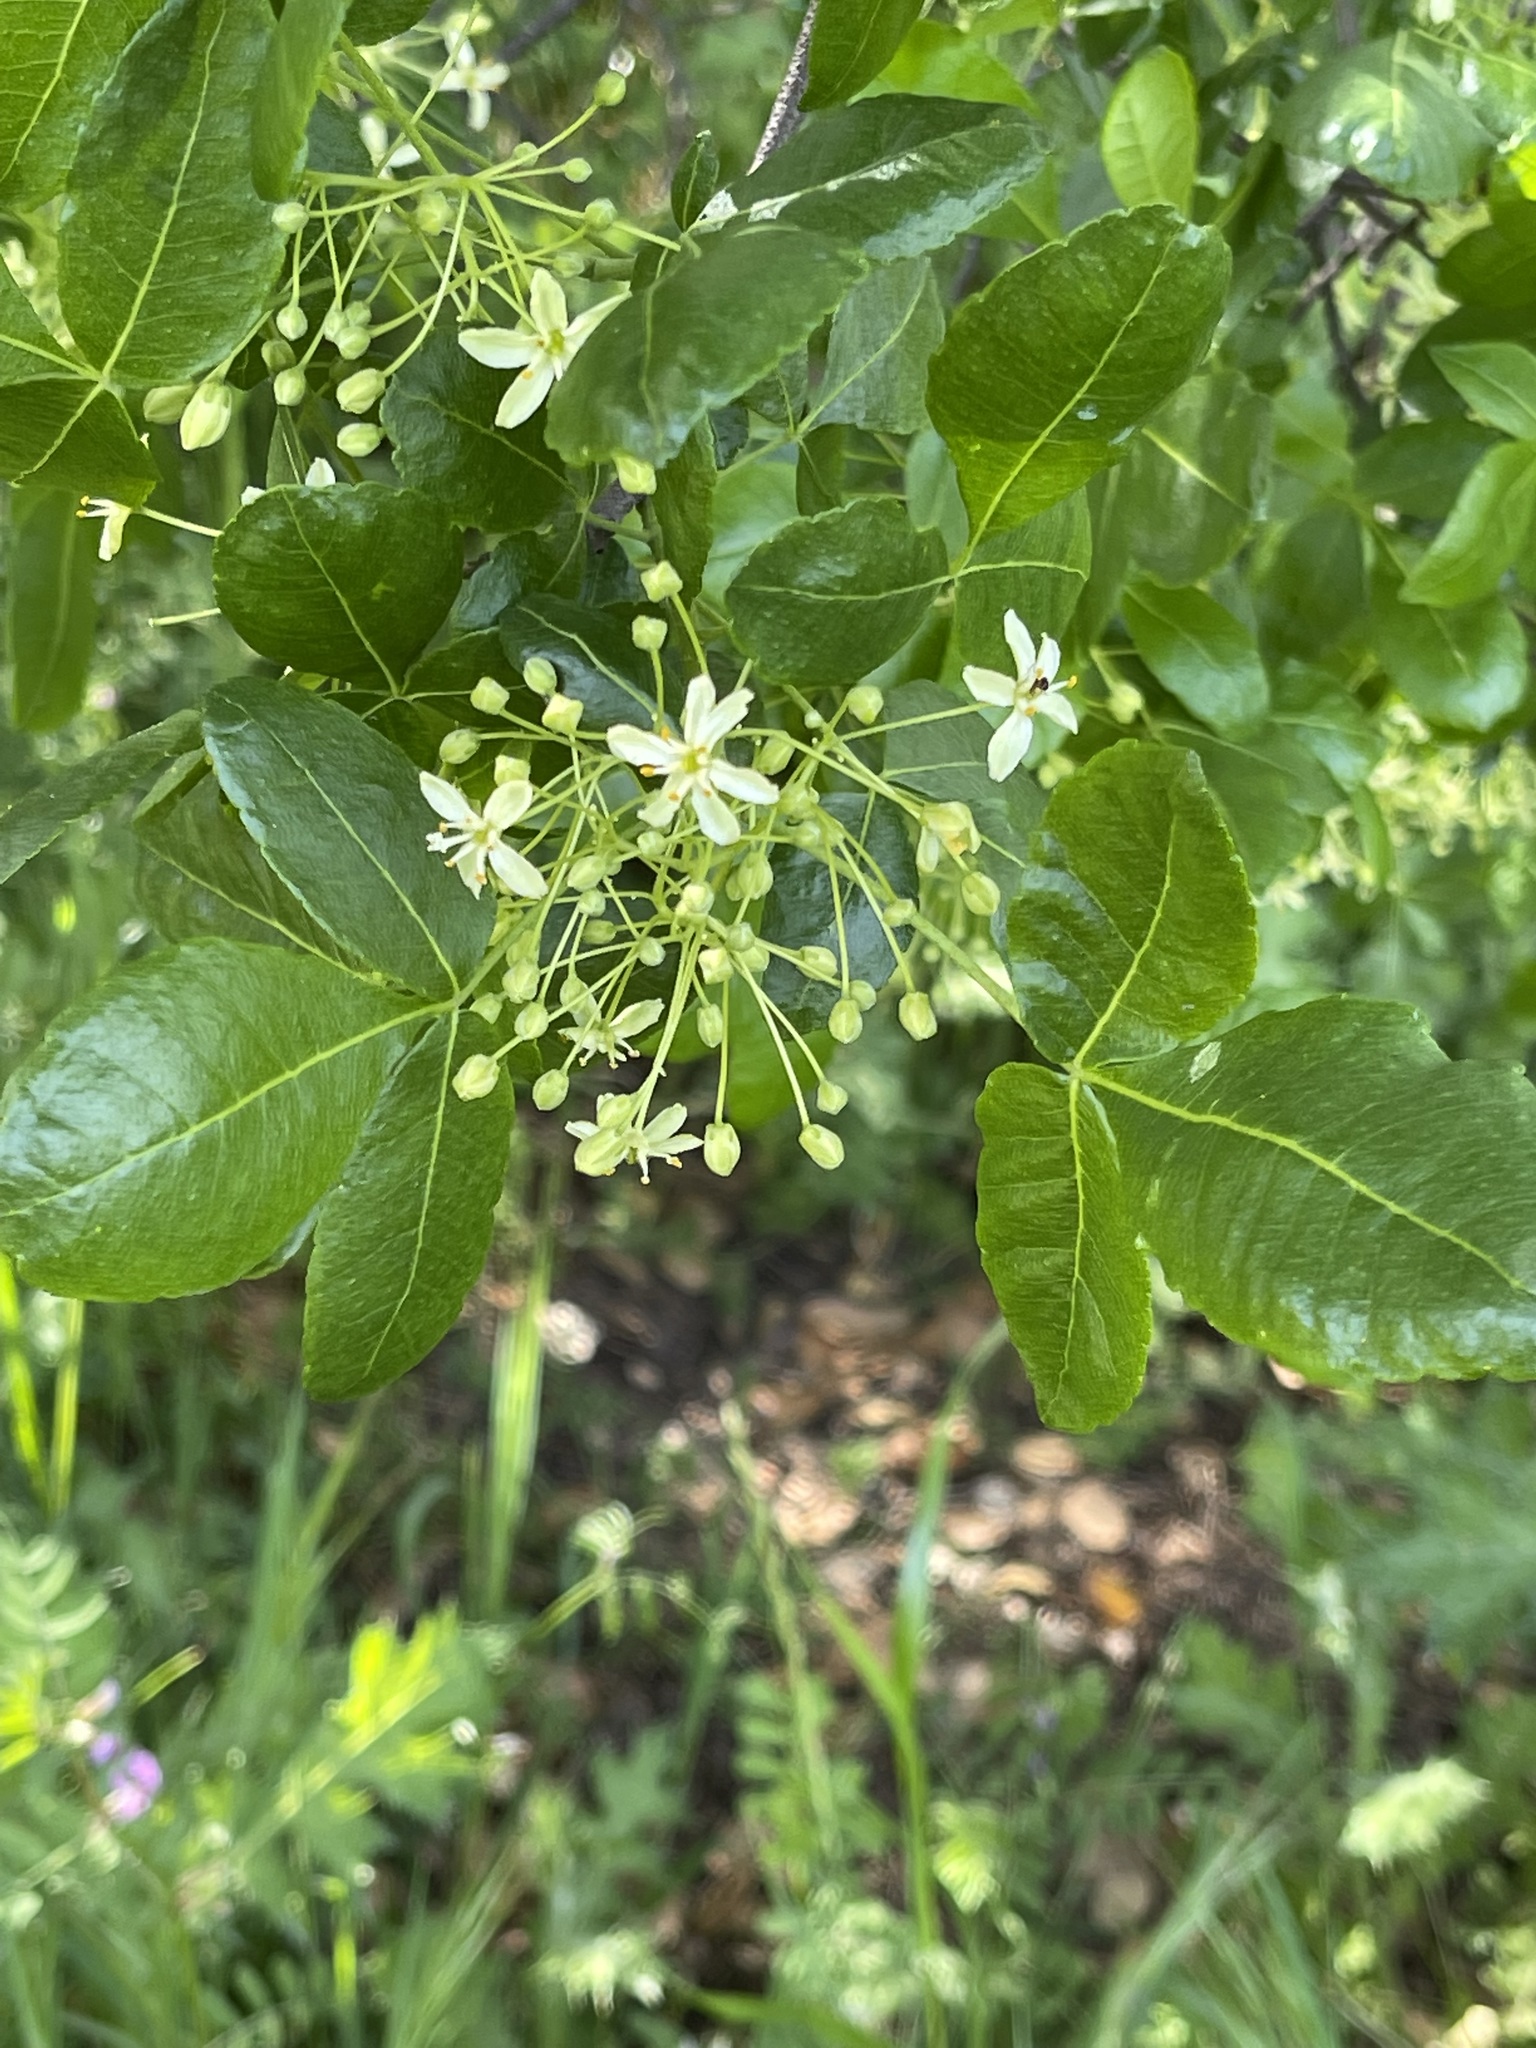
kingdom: Plantae
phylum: Tracheophyta
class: Magnoliopsida
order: Sapindales
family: Rutaceae
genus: Ptelea
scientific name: Ptelea crenulata
